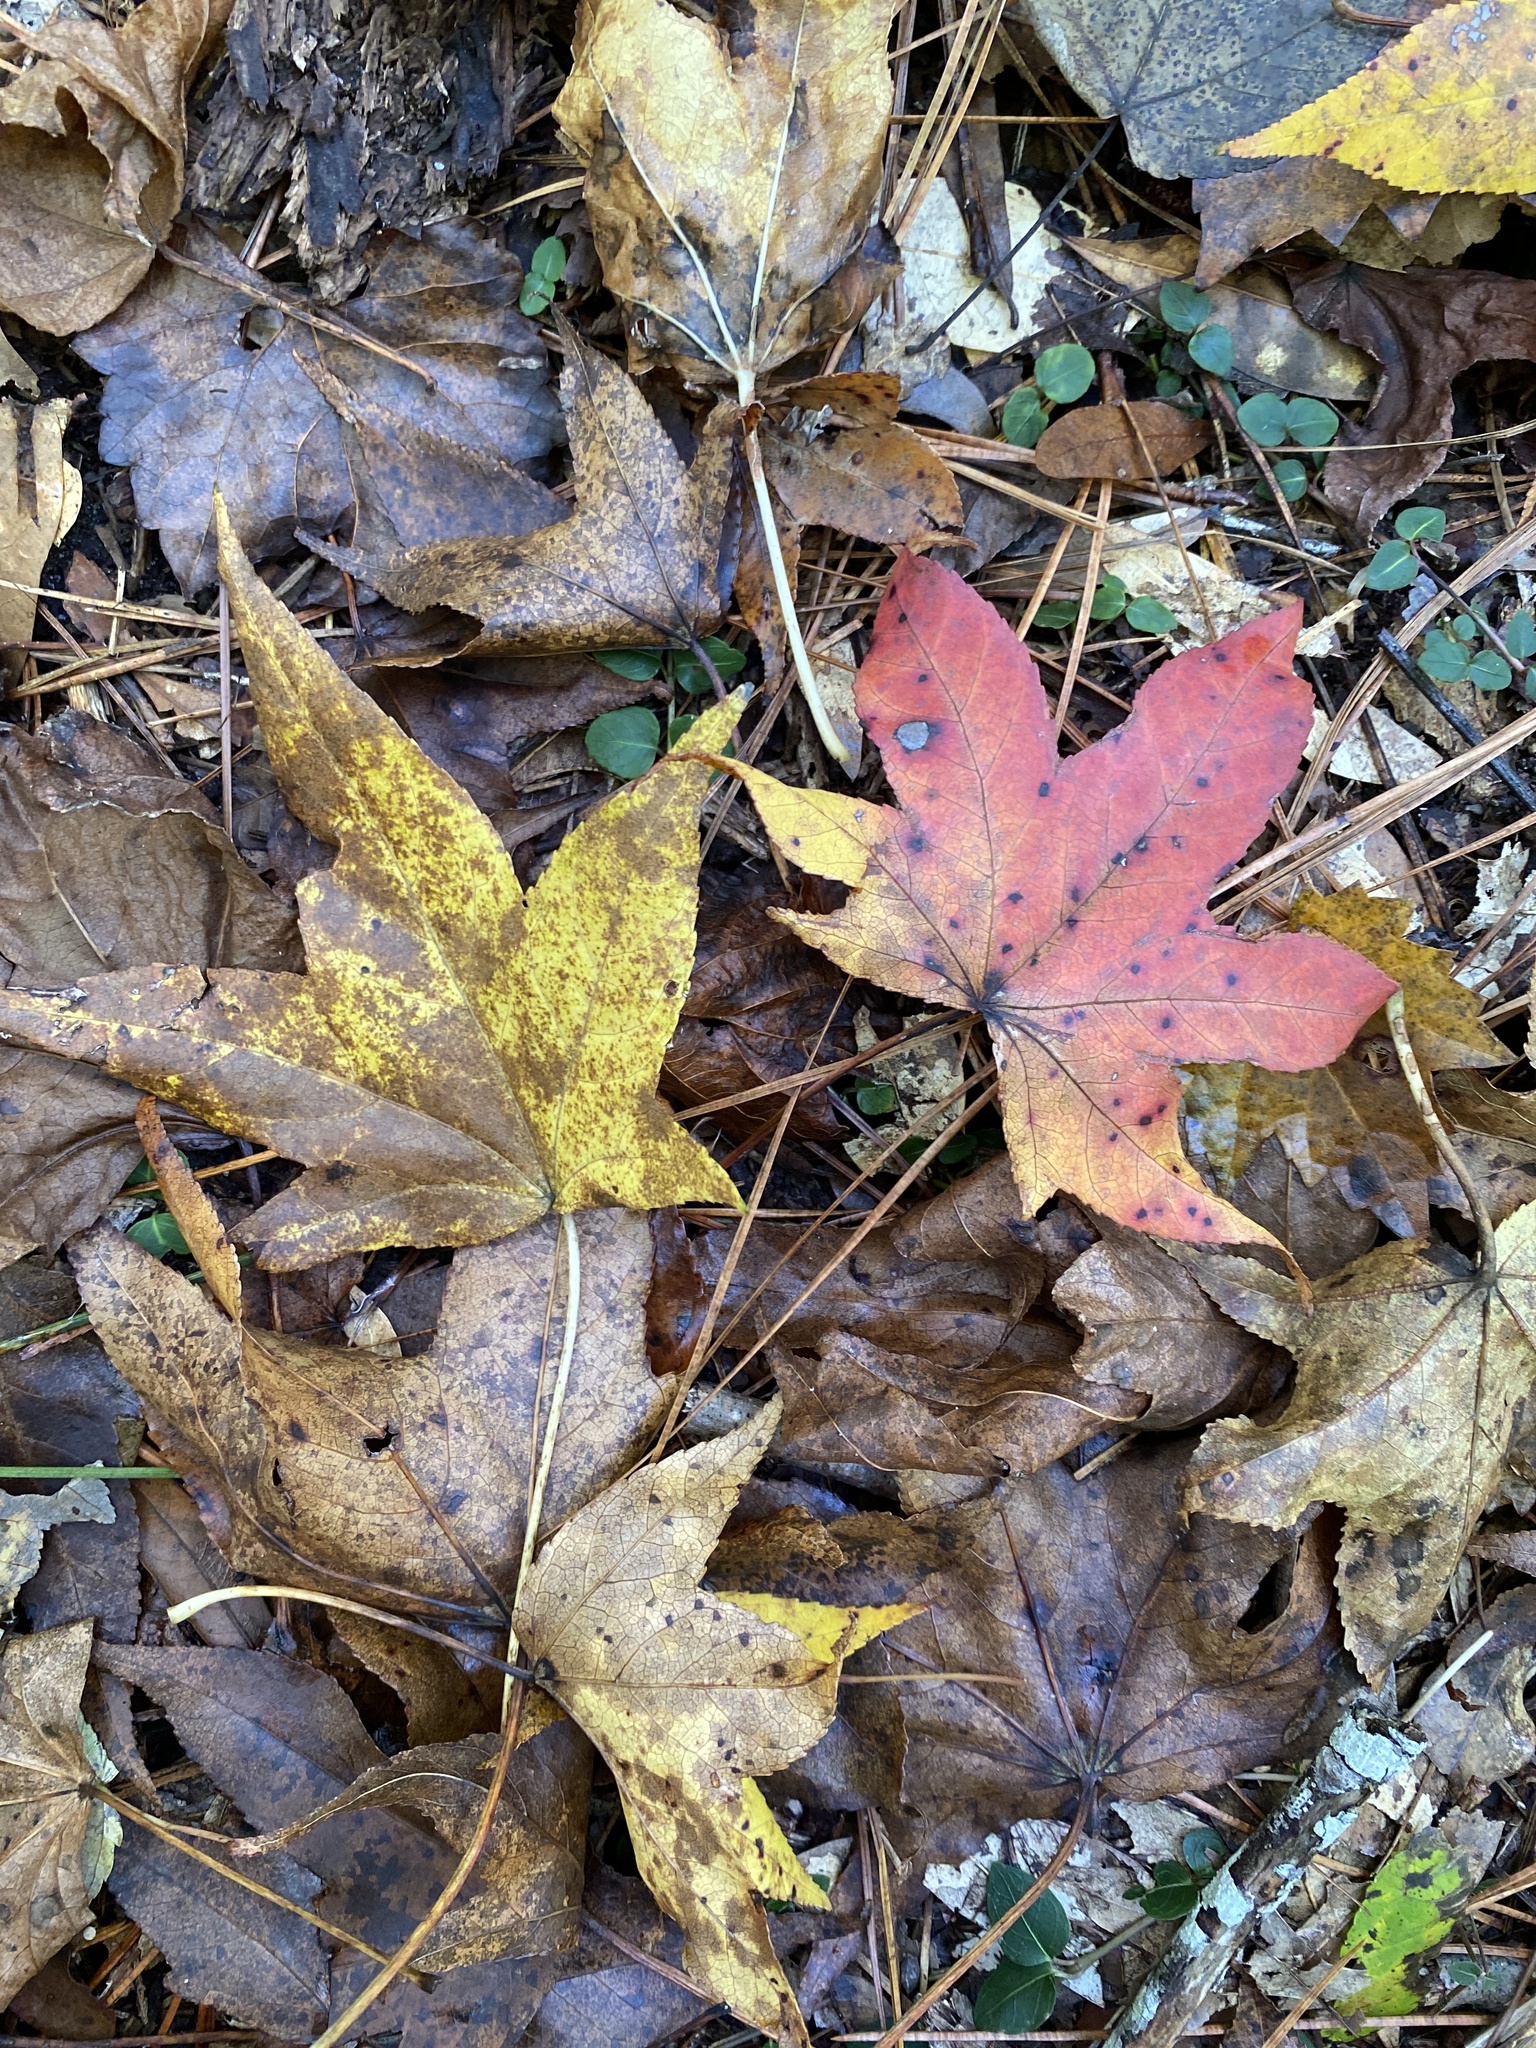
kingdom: Plantae
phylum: Tracheophyta
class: Magnoliopsida
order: Saxifragales
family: Altingiaceae
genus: Liquidambar
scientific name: Liquidambar styraciflua
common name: Sweet gum
